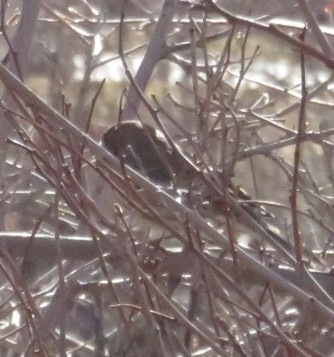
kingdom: Animalia
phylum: Chordata
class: Aves
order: Passeriformes
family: Fringillidae
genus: Haemorhous
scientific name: Haemorhous mexicanus
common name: House finch
